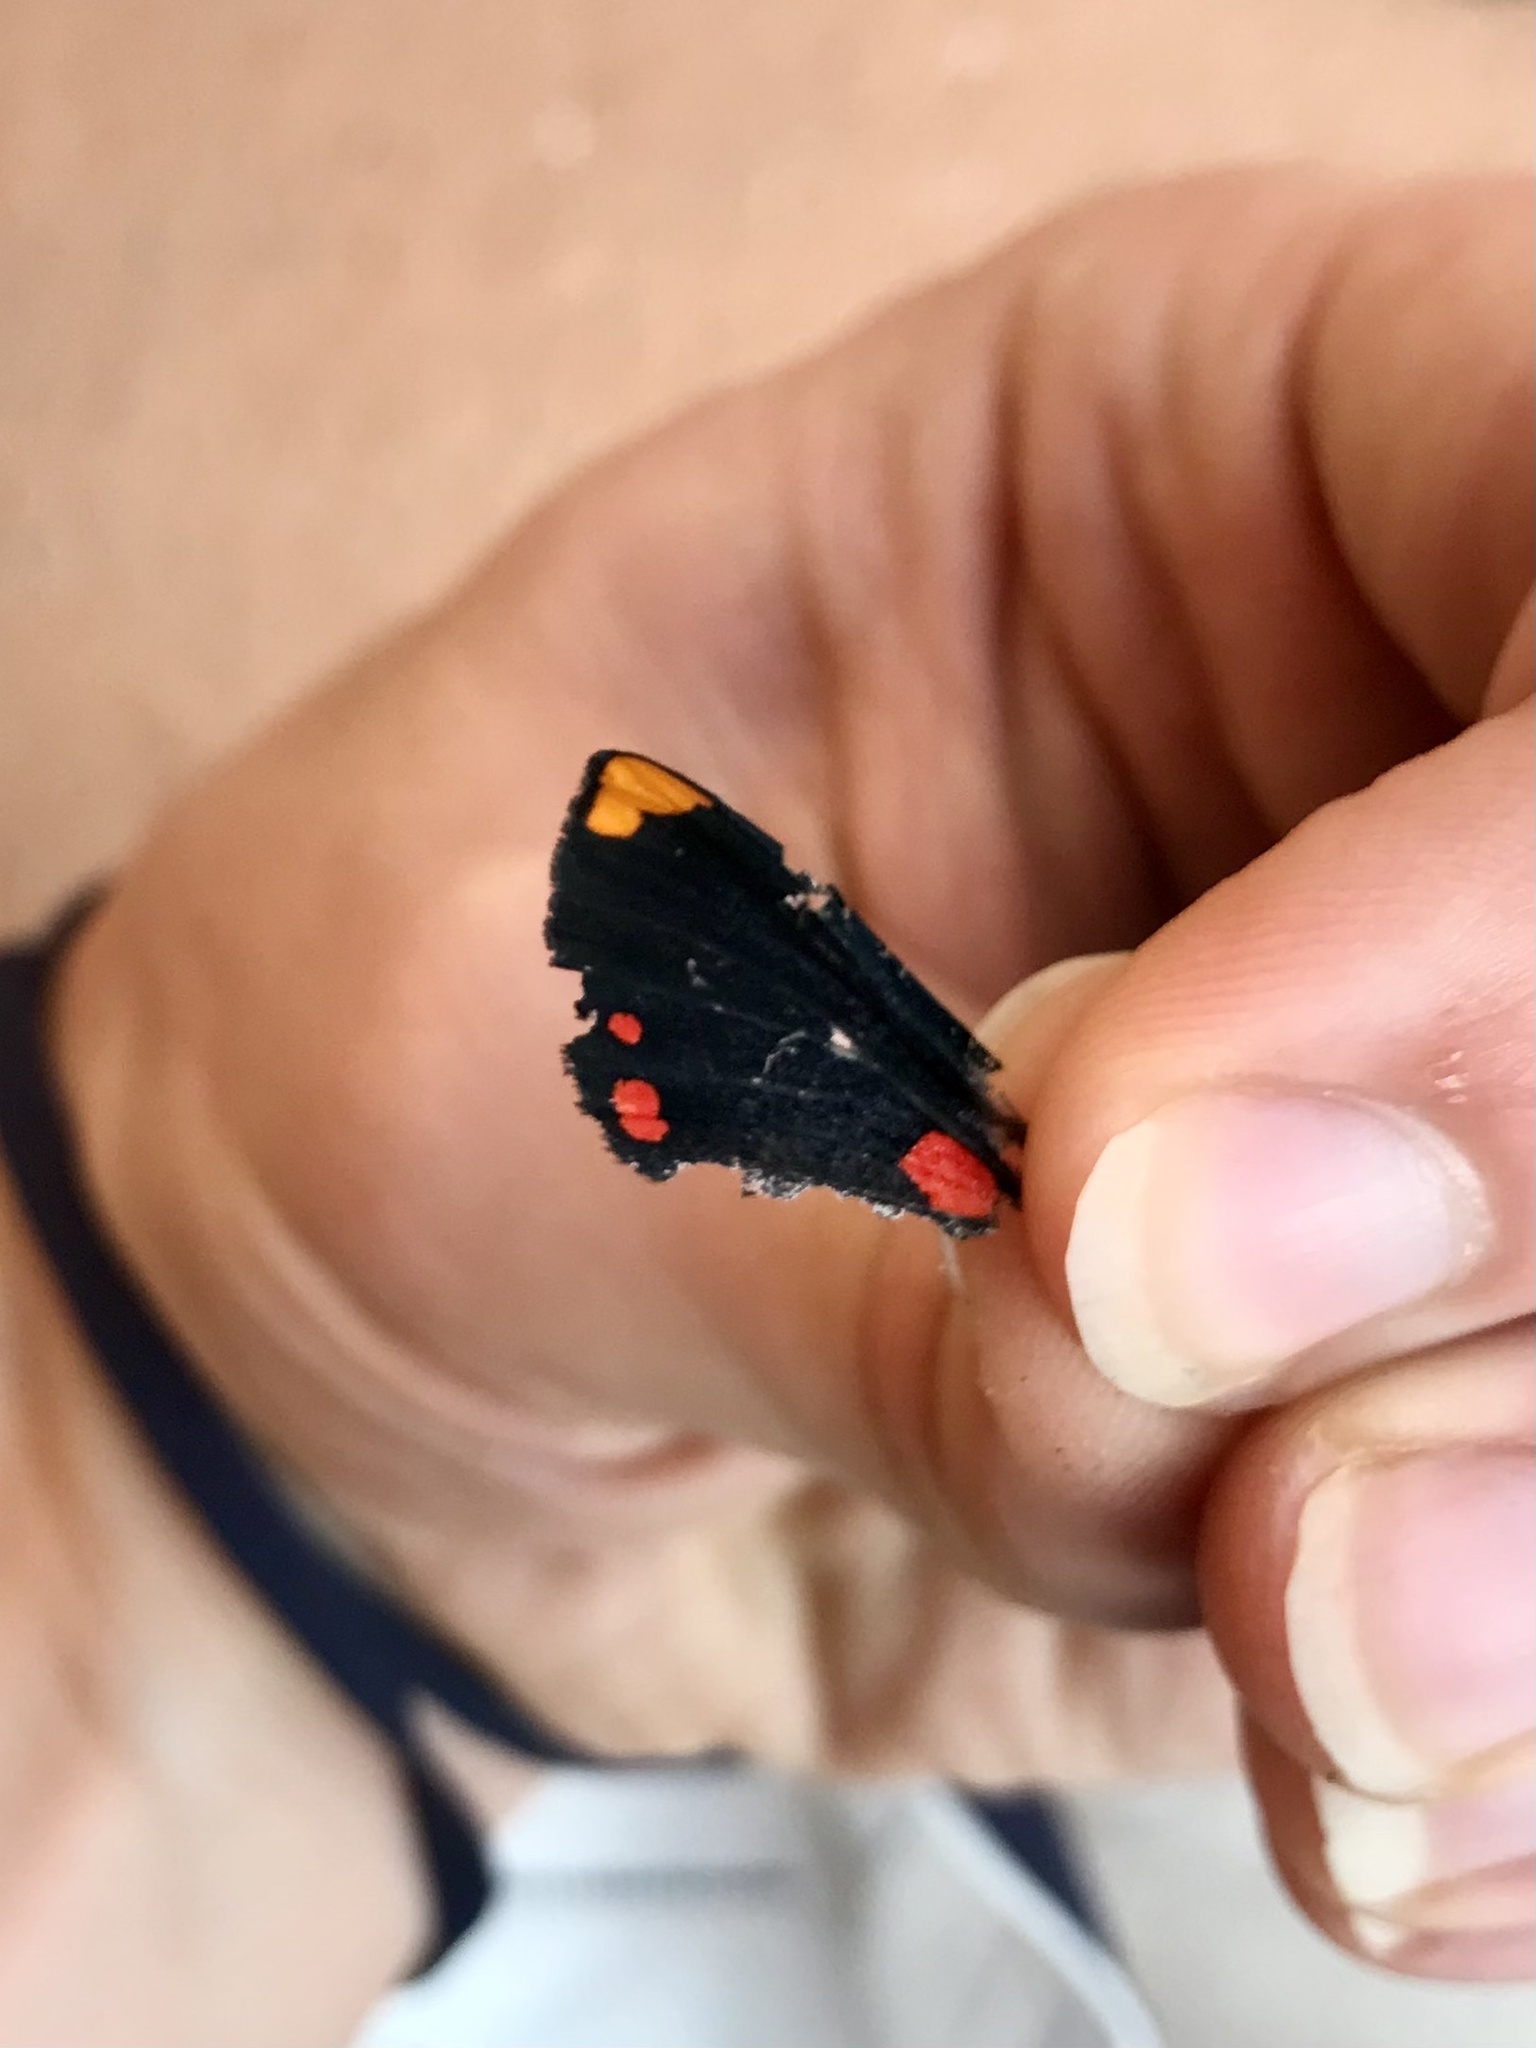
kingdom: Animalia
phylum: Arthropoda
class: Insecta
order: Lepidoptera
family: Lycaenidae
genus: Melanis
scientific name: Melanis pixe
